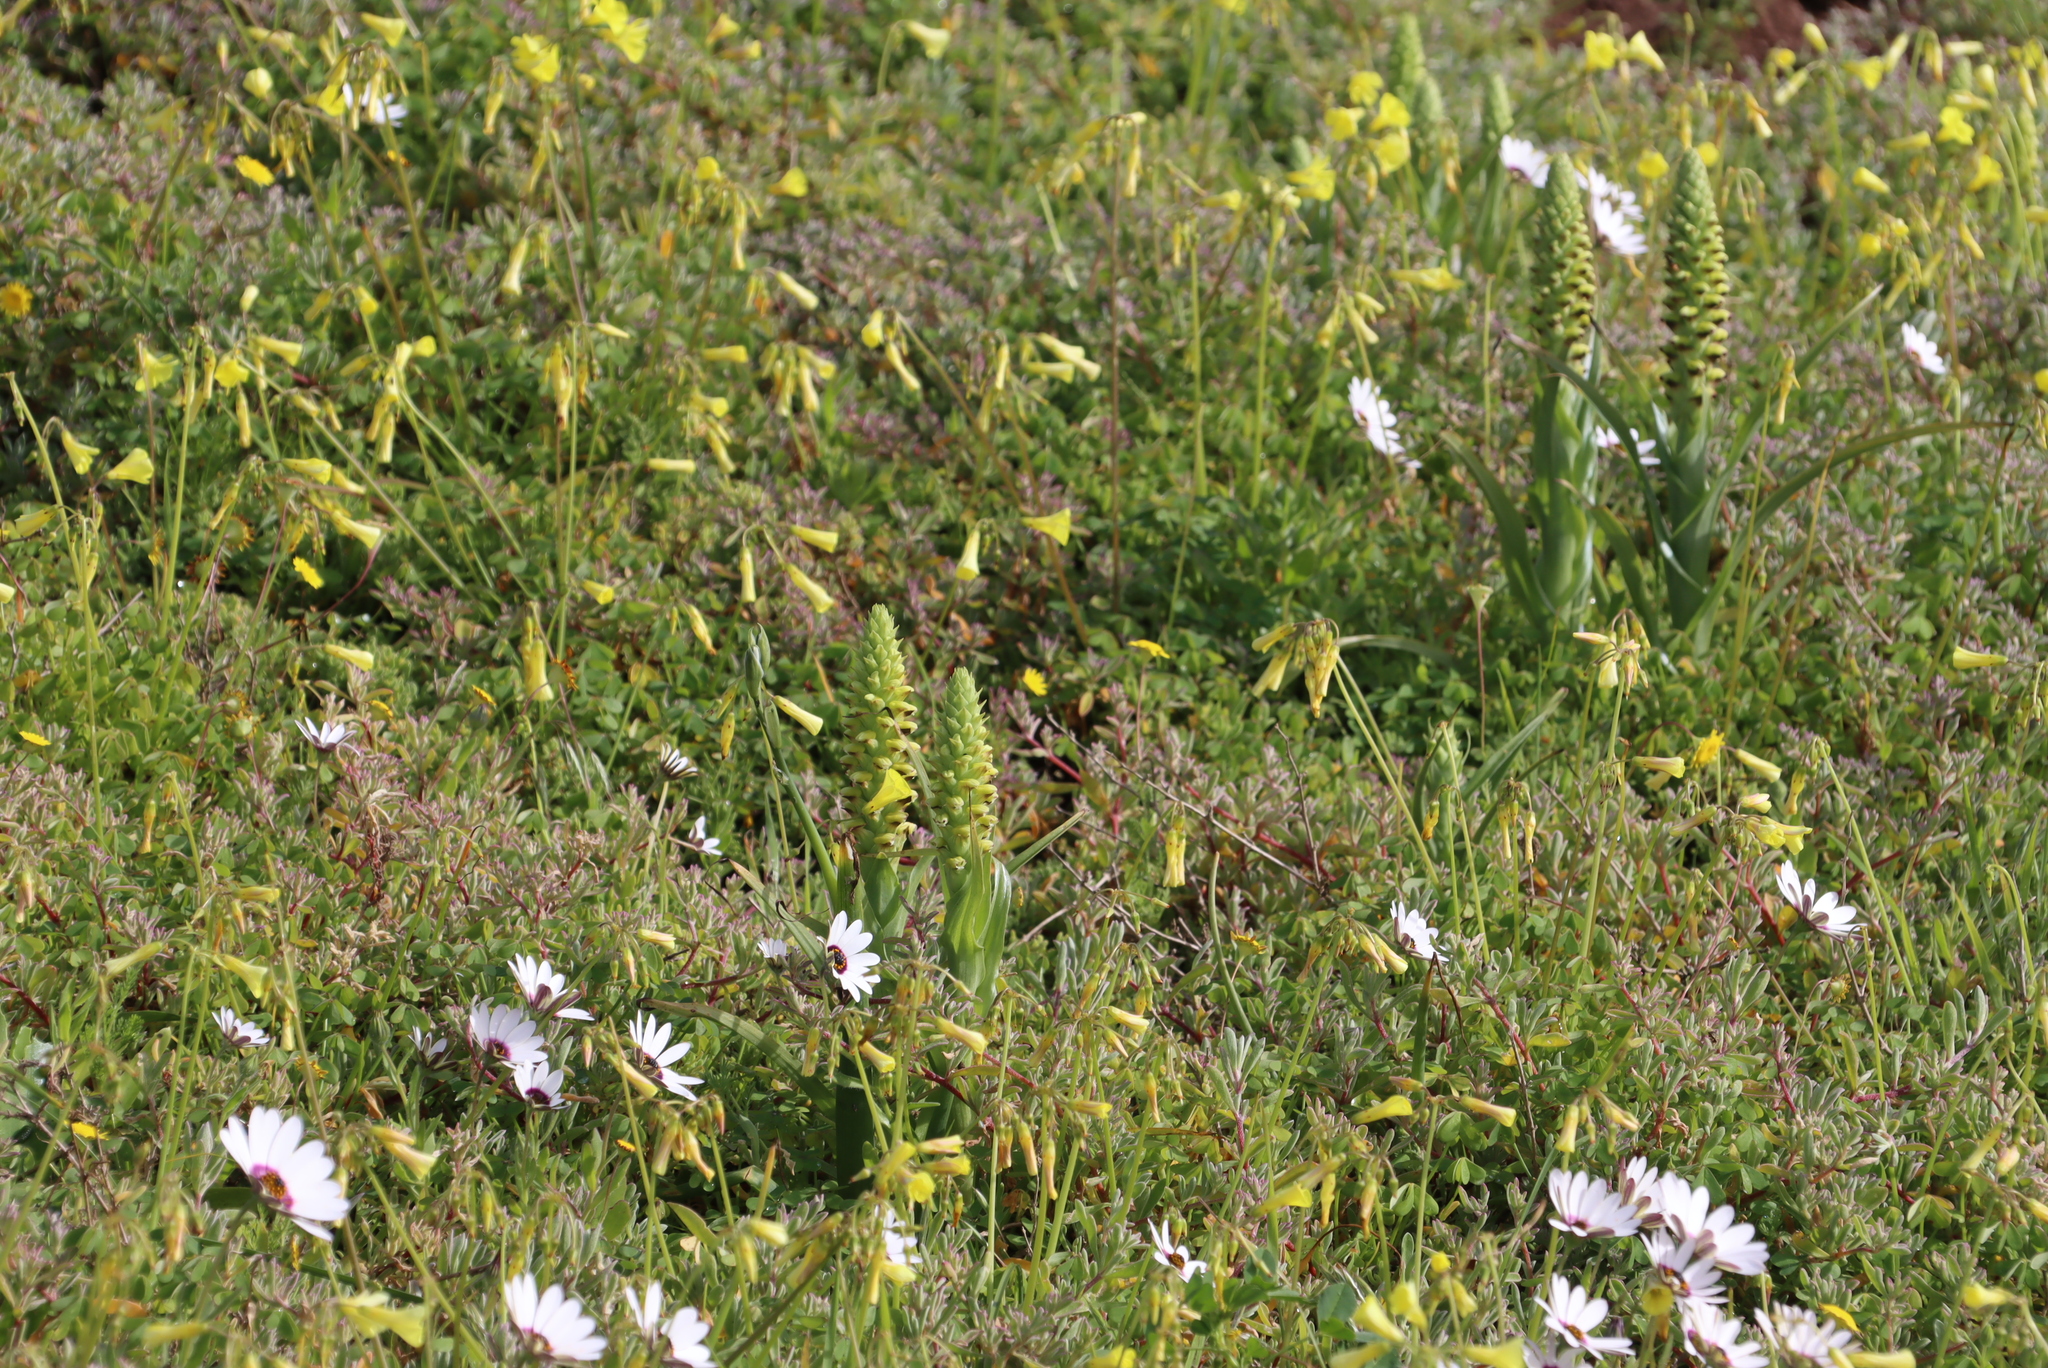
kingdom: Plantae
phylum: Tracheophyta
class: Liliopsida
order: Asparagales
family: Orchidaceae
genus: Corycium
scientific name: Corycium orobanchoides
